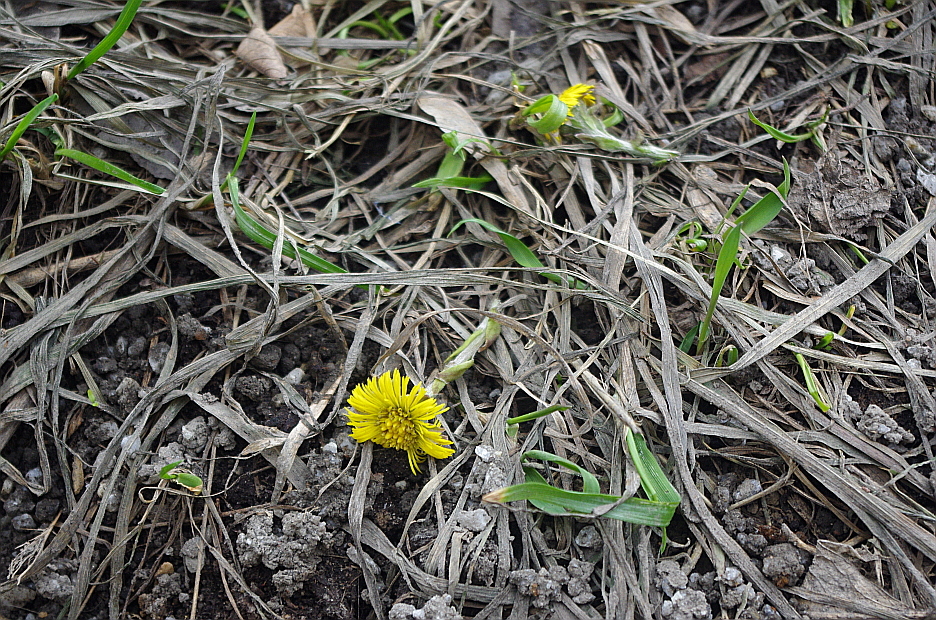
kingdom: Plantae
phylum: Tracheophyta
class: Magnoliopsida
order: Asterales
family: Asteraceae
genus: Tussilago
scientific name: Tussilago farfara
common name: Coltsfoot
